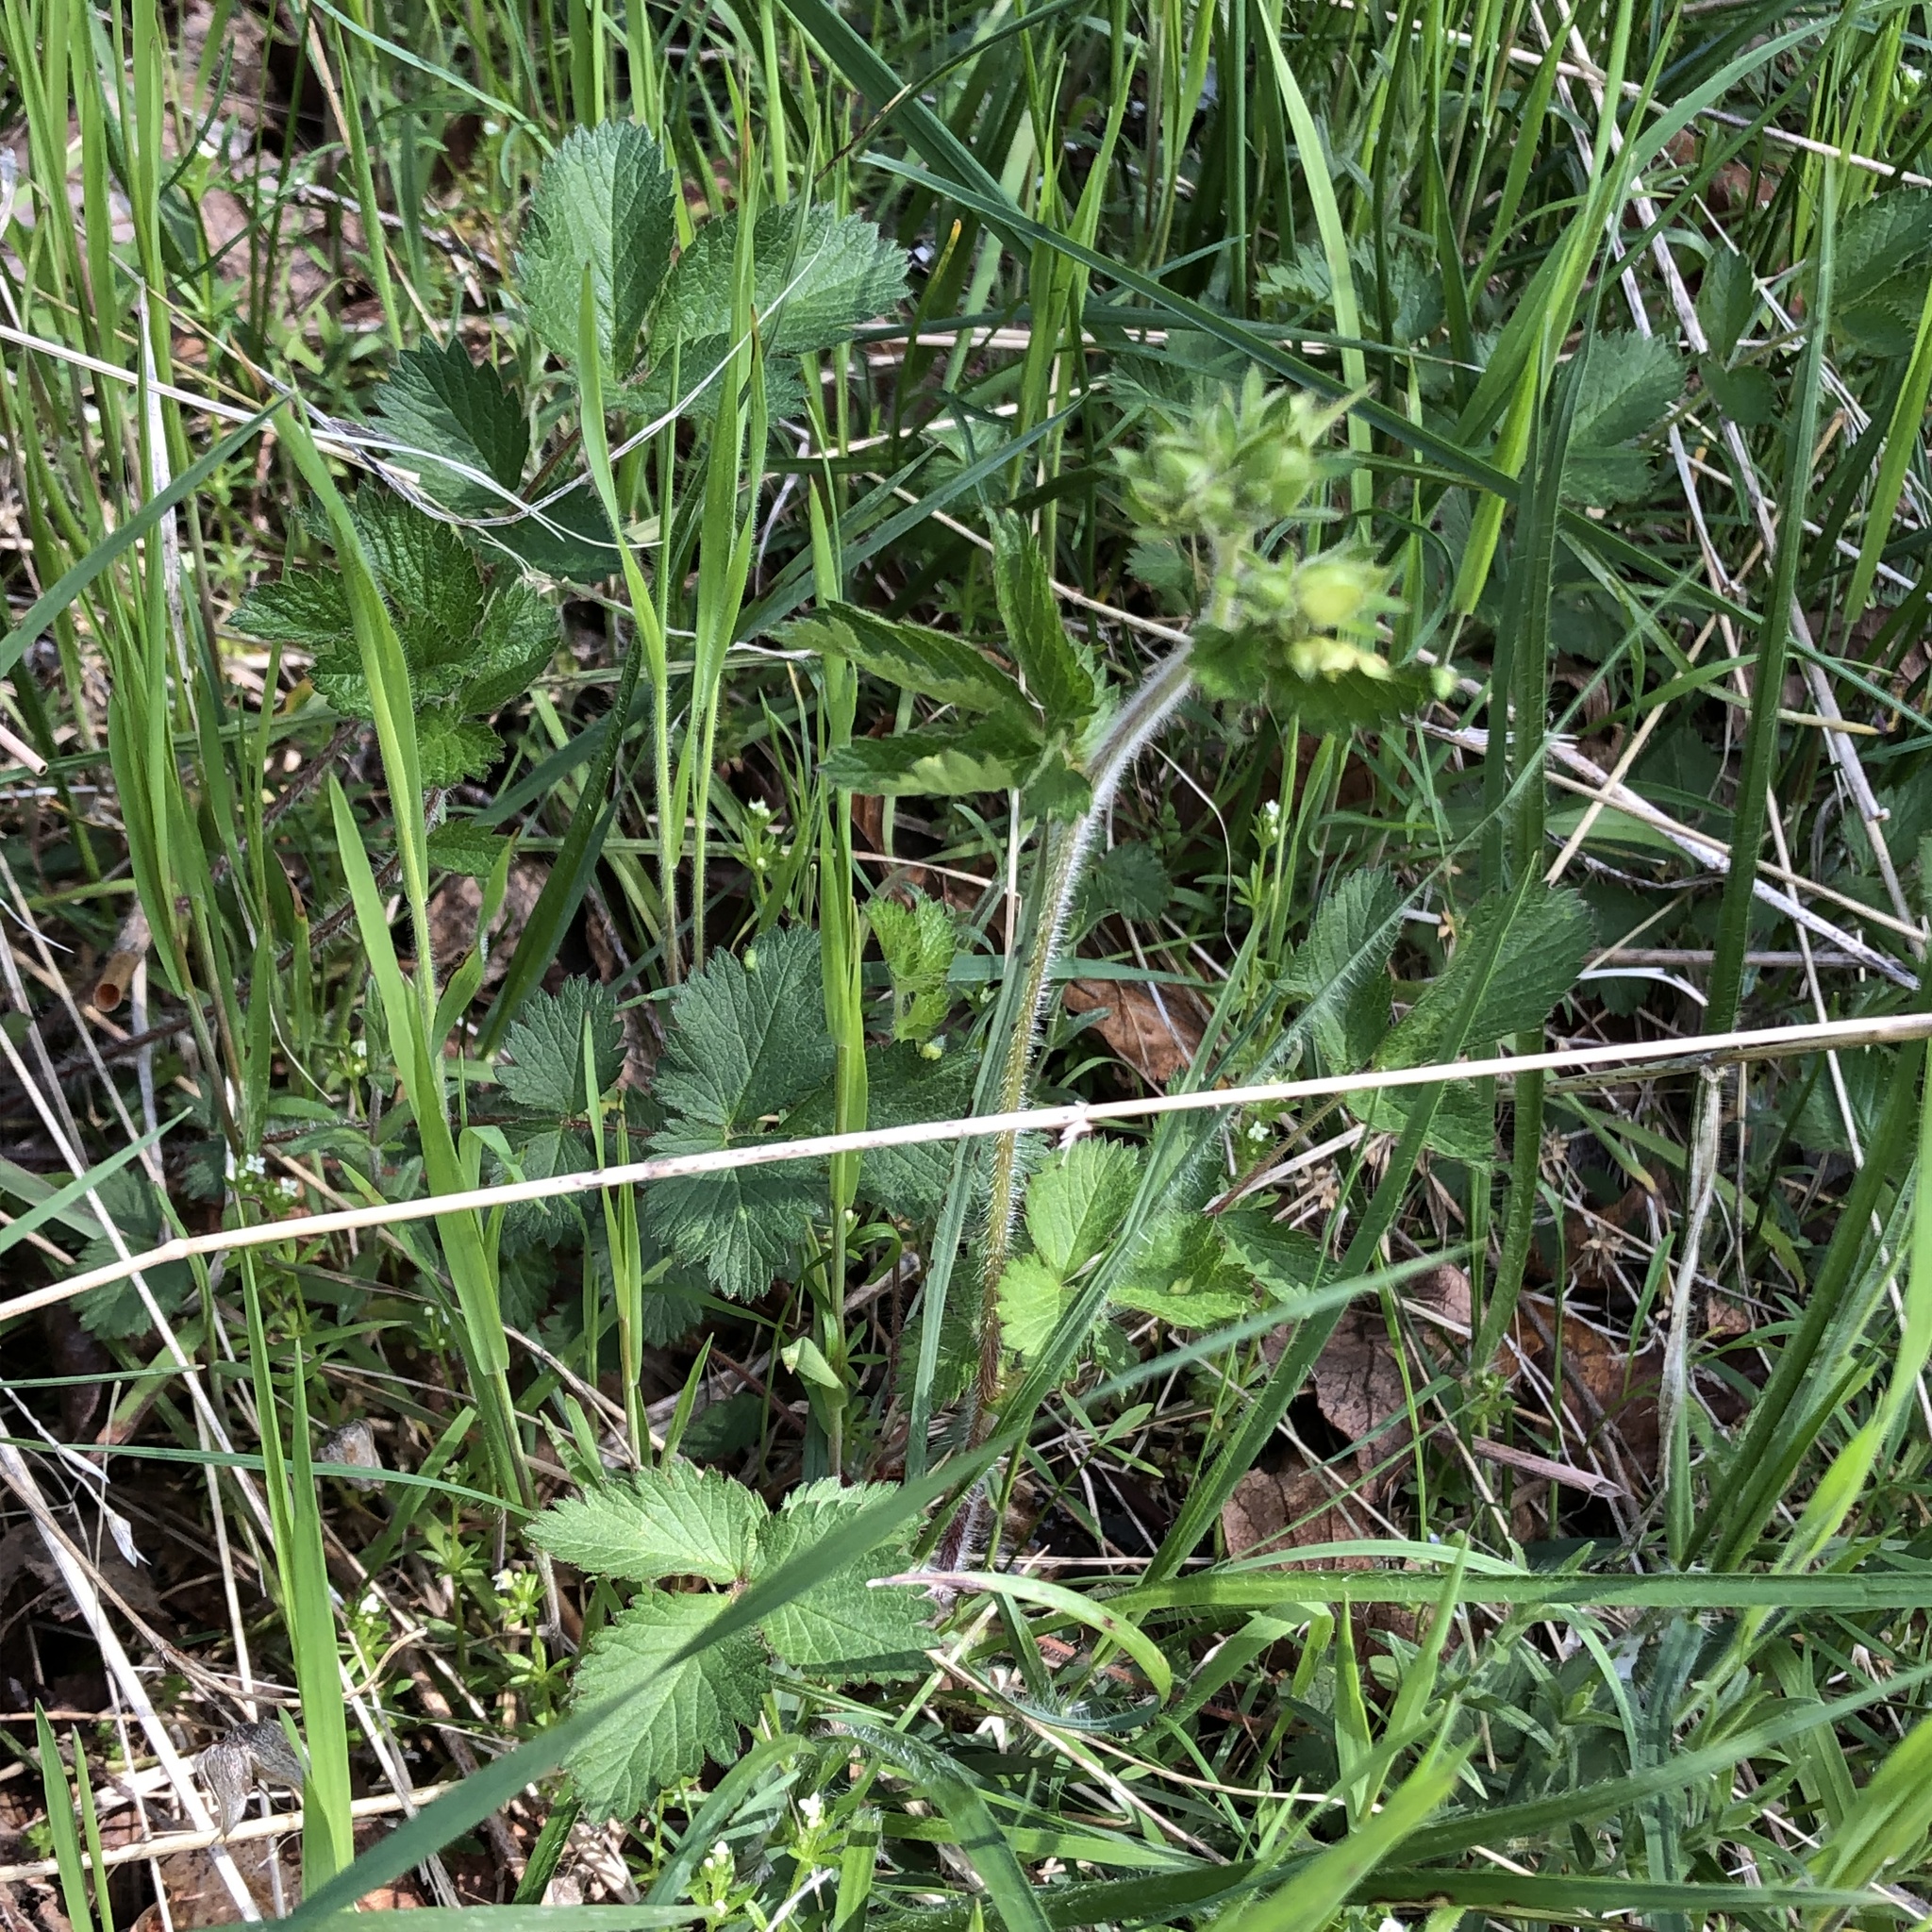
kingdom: Plantae
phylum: Tracheophyta
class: Magnoliopsida
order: Rosales
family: Rosaceae
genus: Drymocallis
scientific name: Drymocallis glandulosa
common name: Sticky cinquefoil
